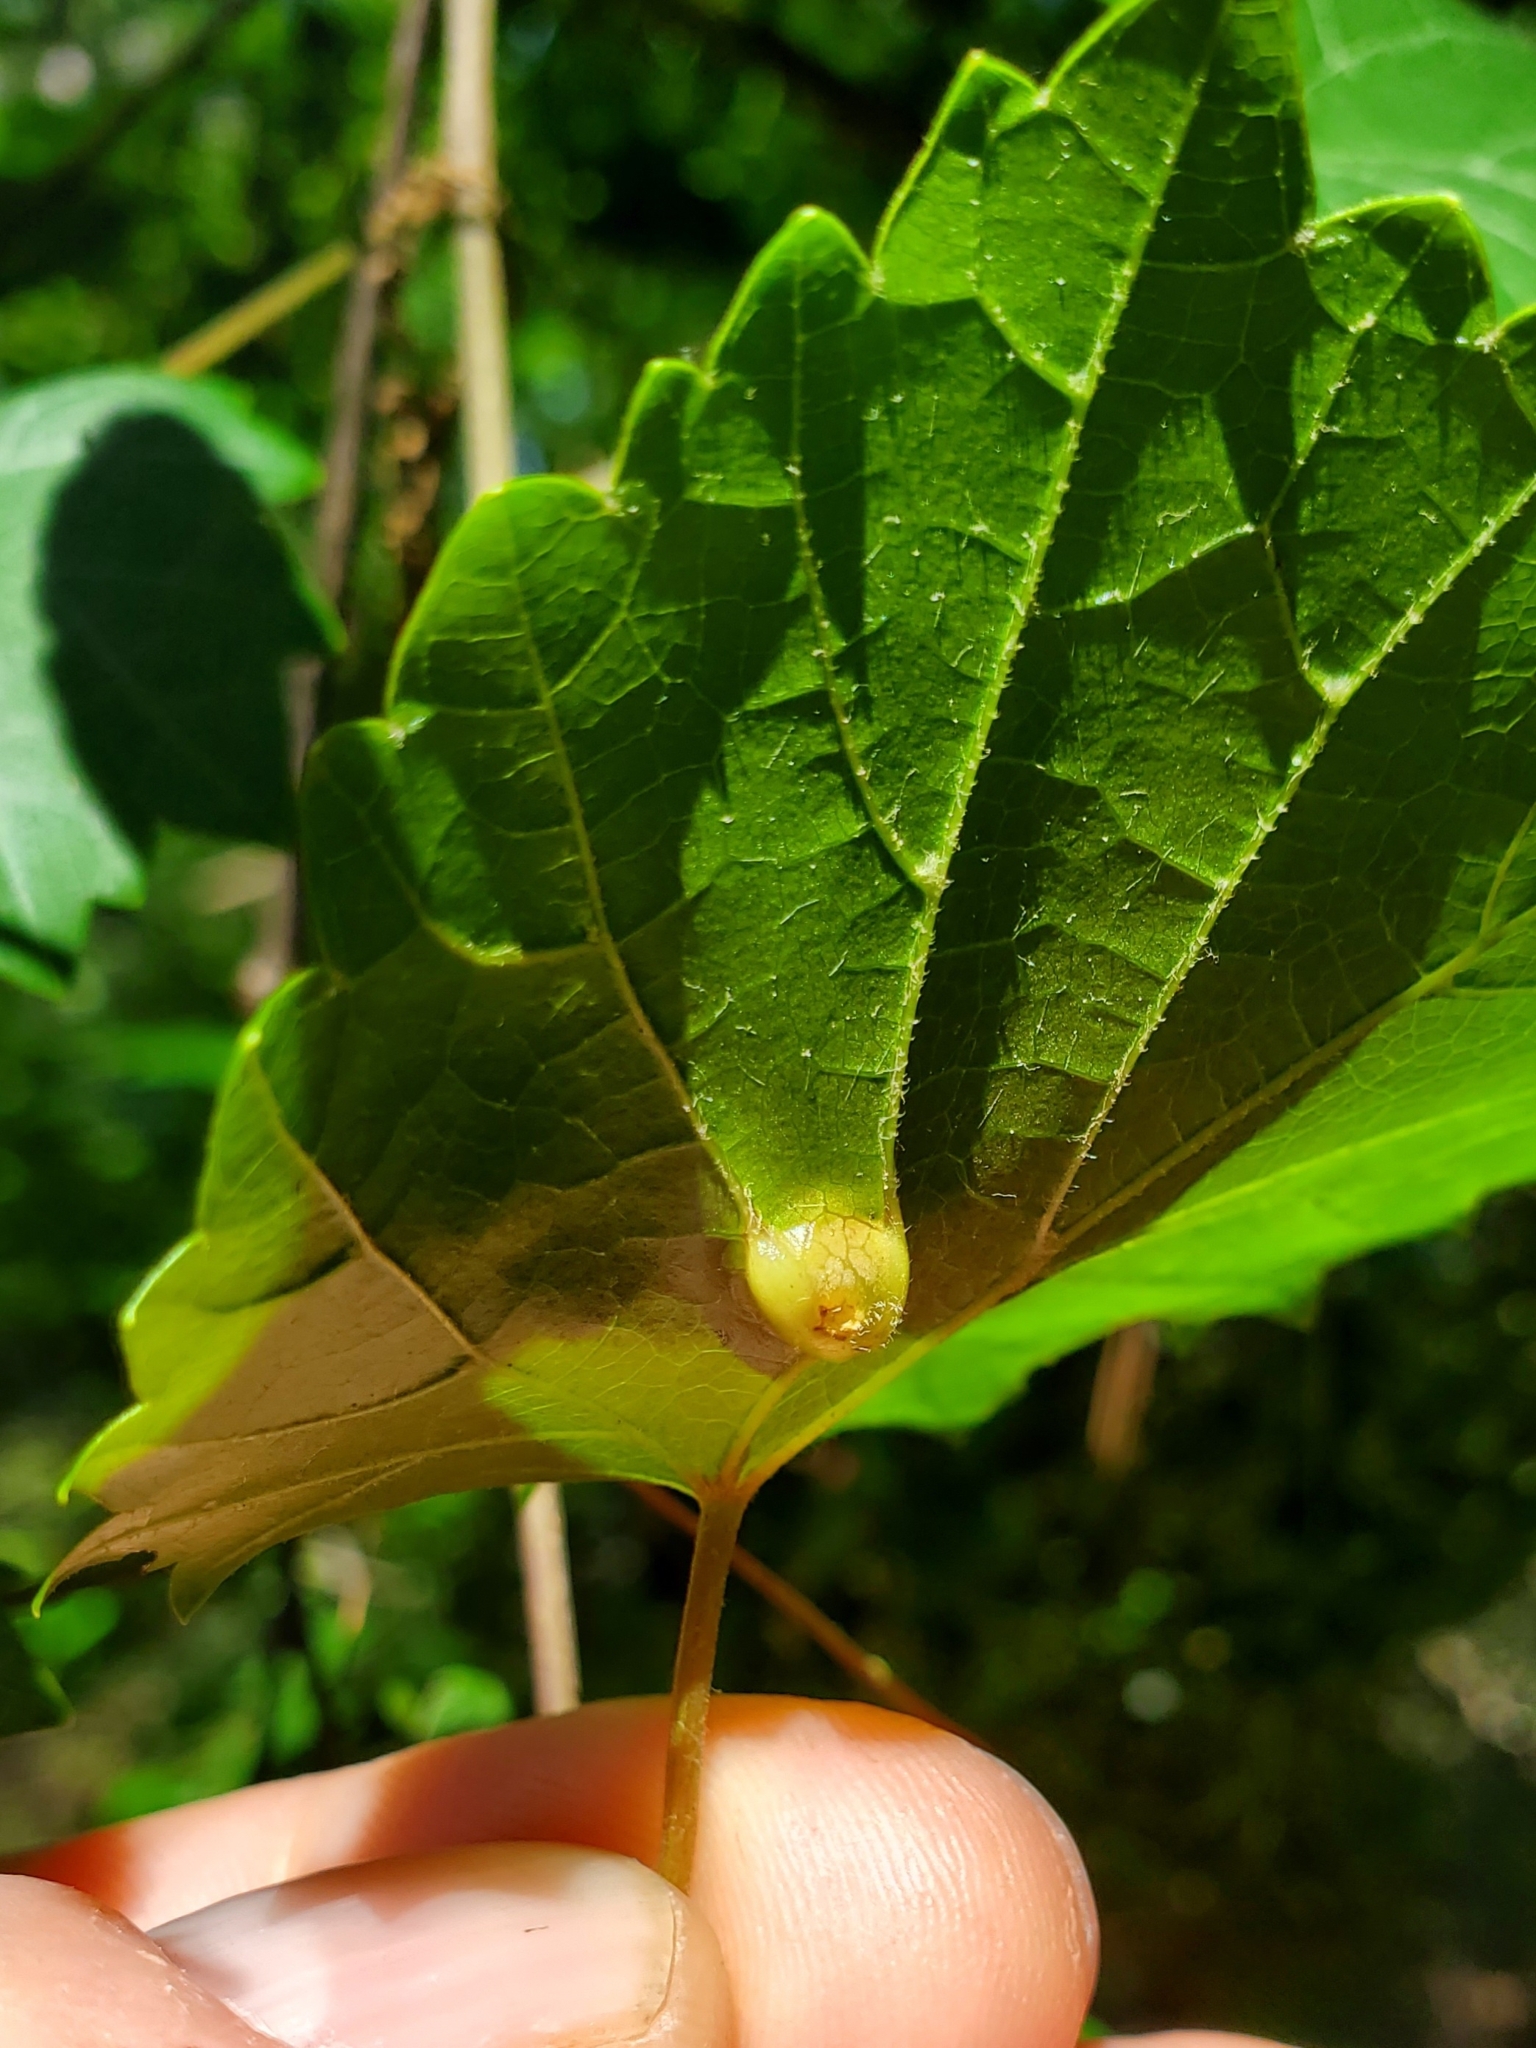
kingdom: Animalia
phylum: Arthropoda
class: Insecta
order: Diptera
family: Cecidomyiidae
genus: Vitisiella
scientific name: Vitisiella brevicauda
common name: Grape tumid gallmaker midge
